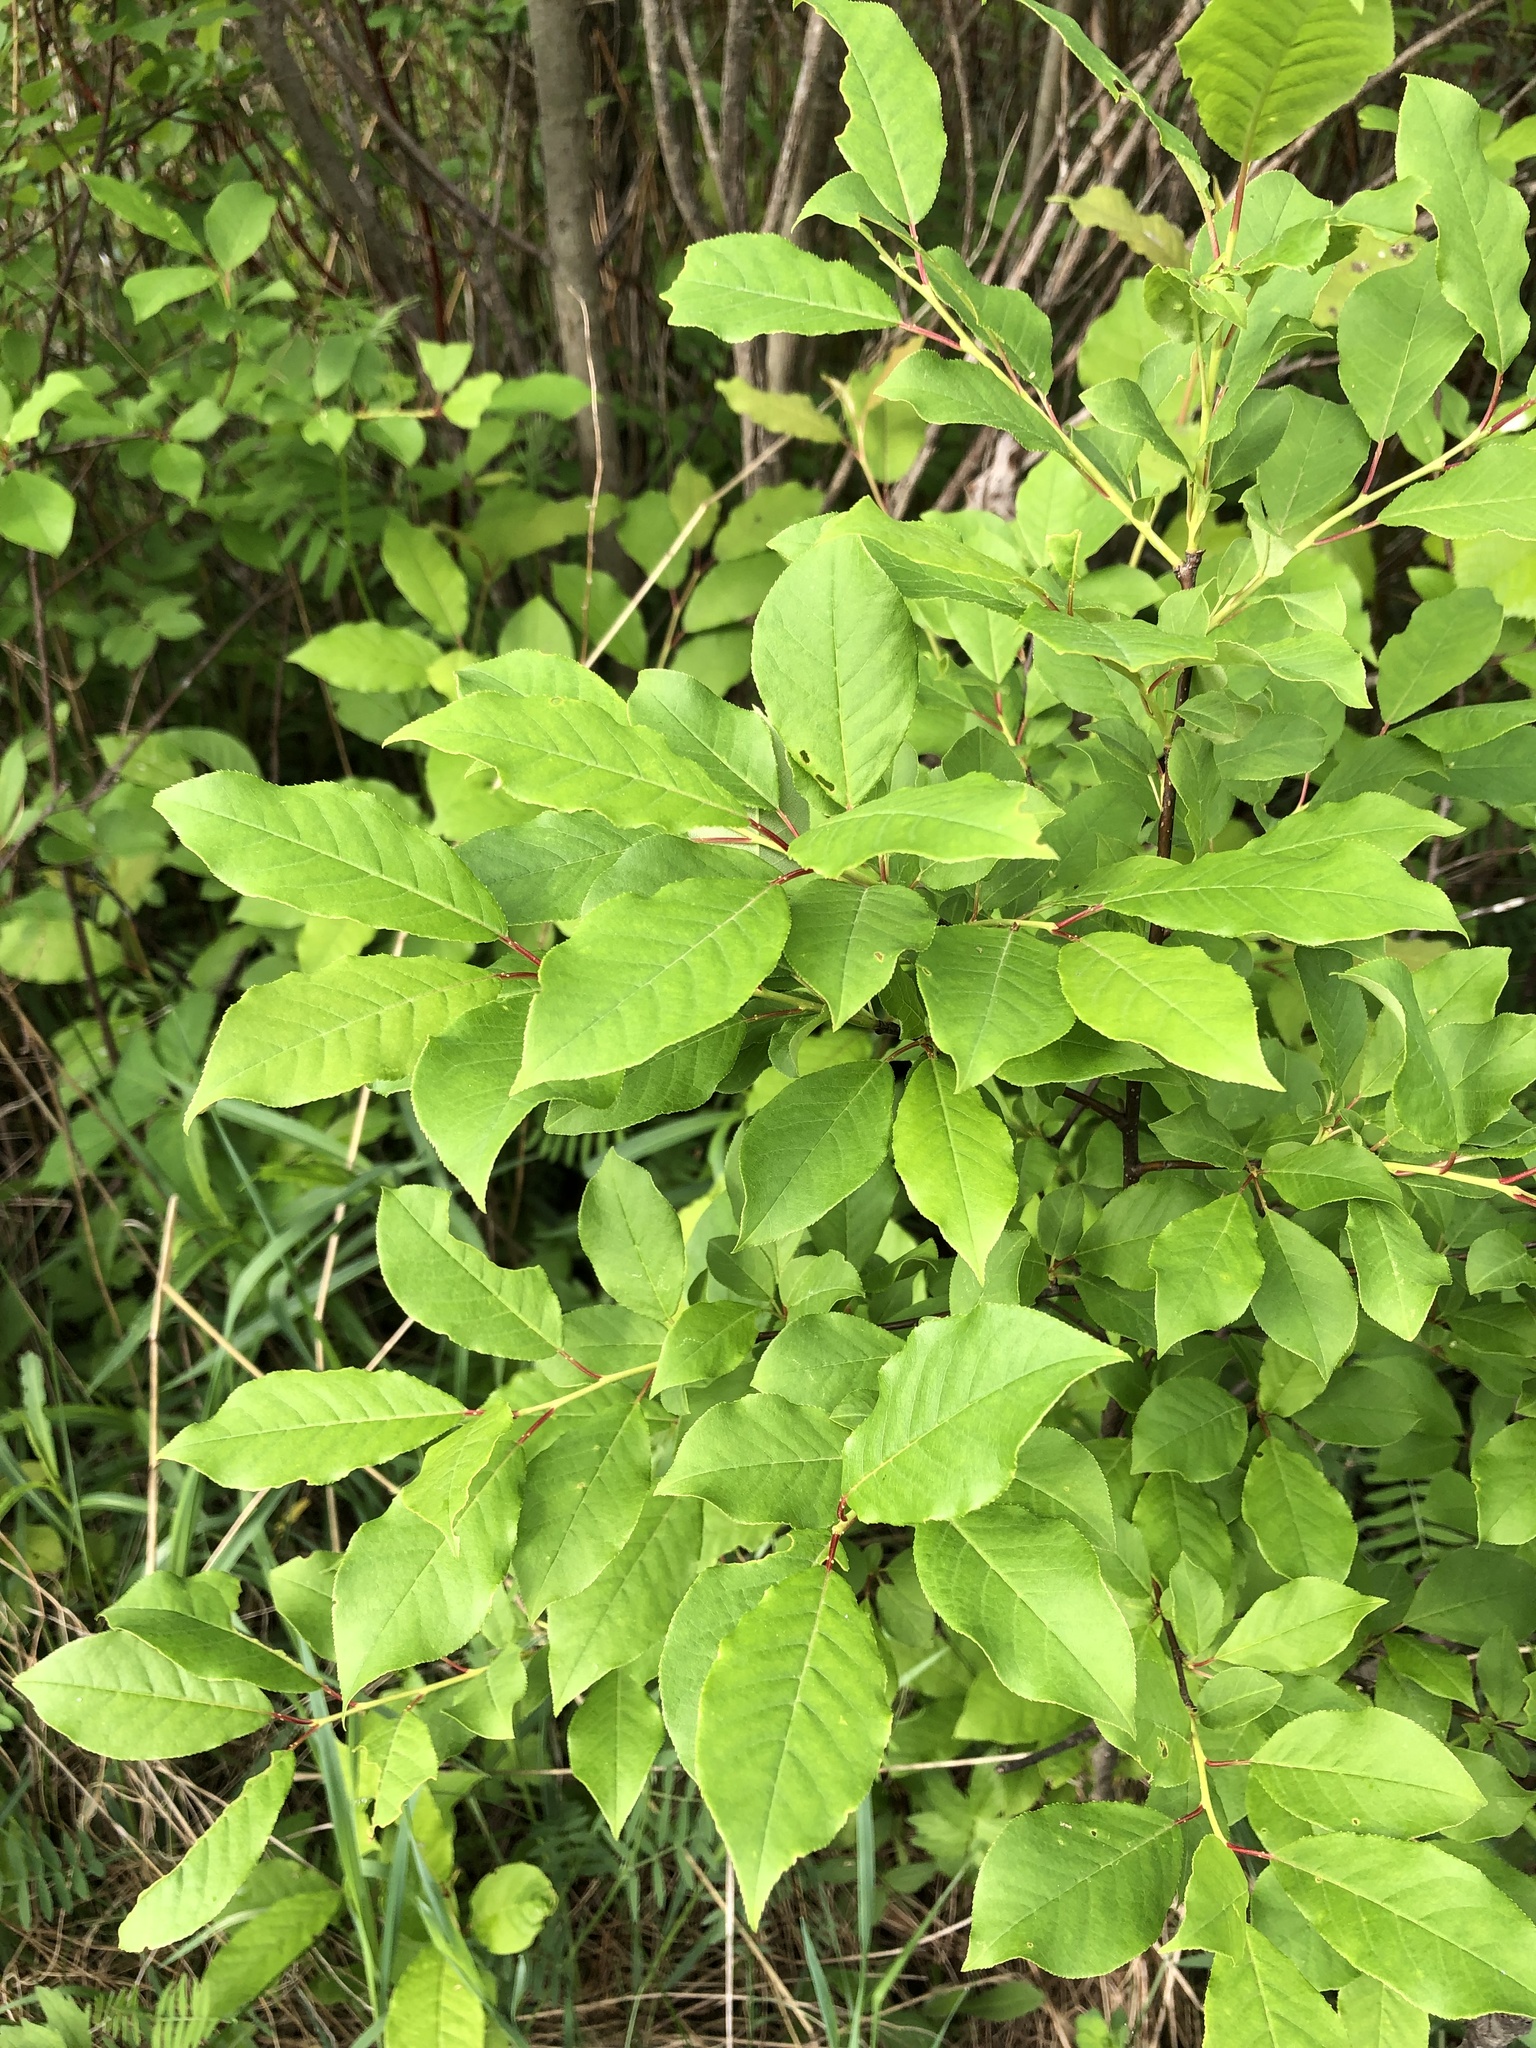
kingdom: Plantae
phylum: Tracheophyta
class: Magnoliopsida
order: Rosales
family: Rosaceae
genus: Prunus
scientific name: Prunus virginiana
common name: Chokecherry
